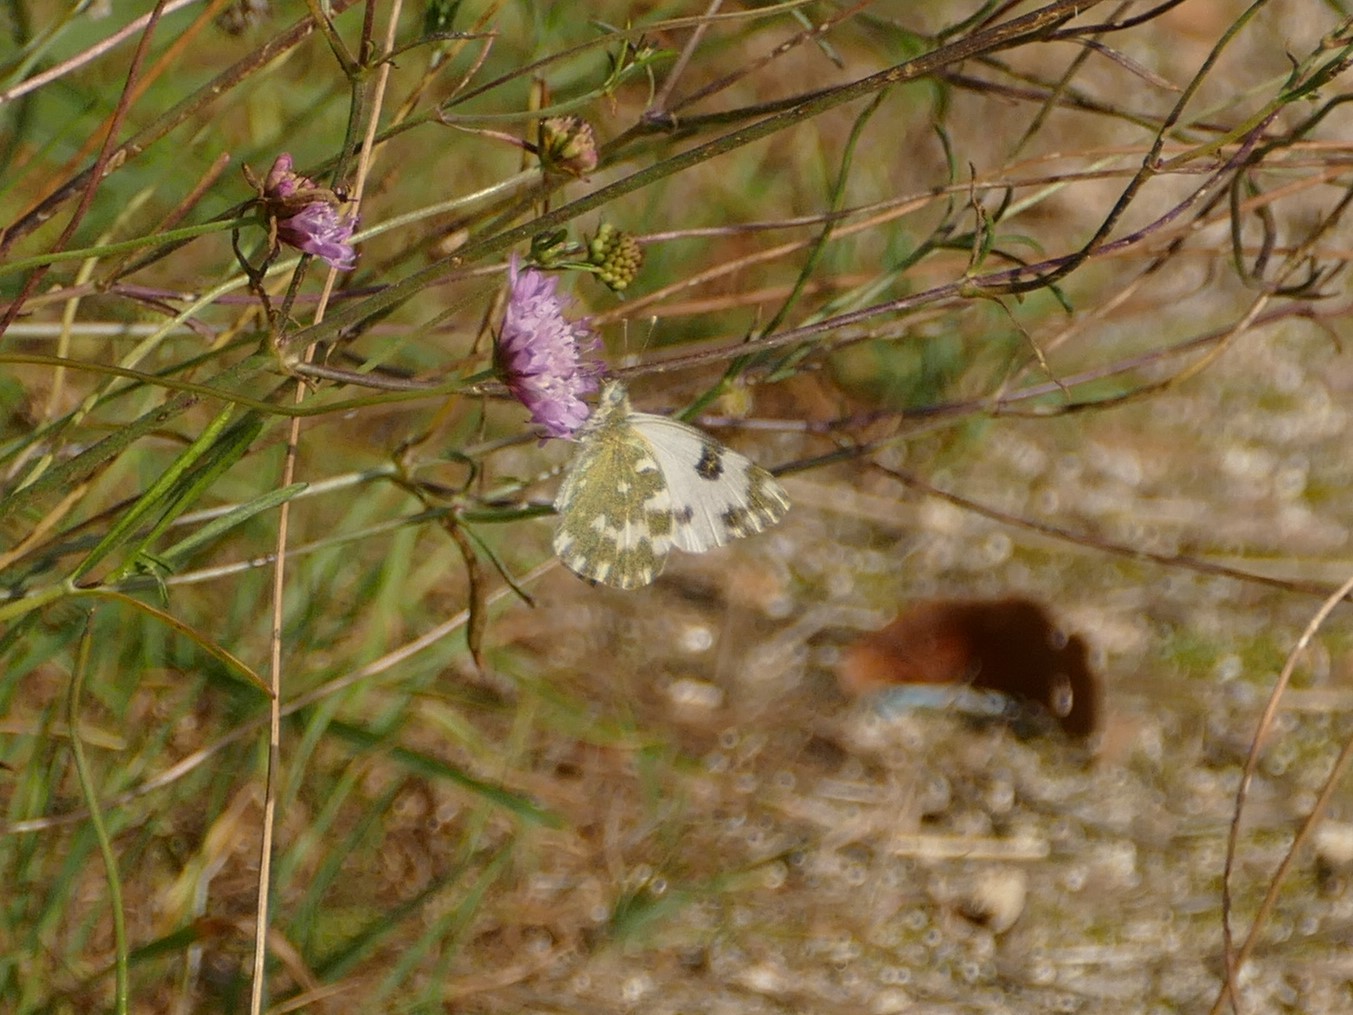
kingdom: Animalia
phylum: Arthropoda
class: Insecta
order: Lepidoptera
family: Pieridae
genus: Pontia
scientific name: Pontia daplidice
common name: Bath white
